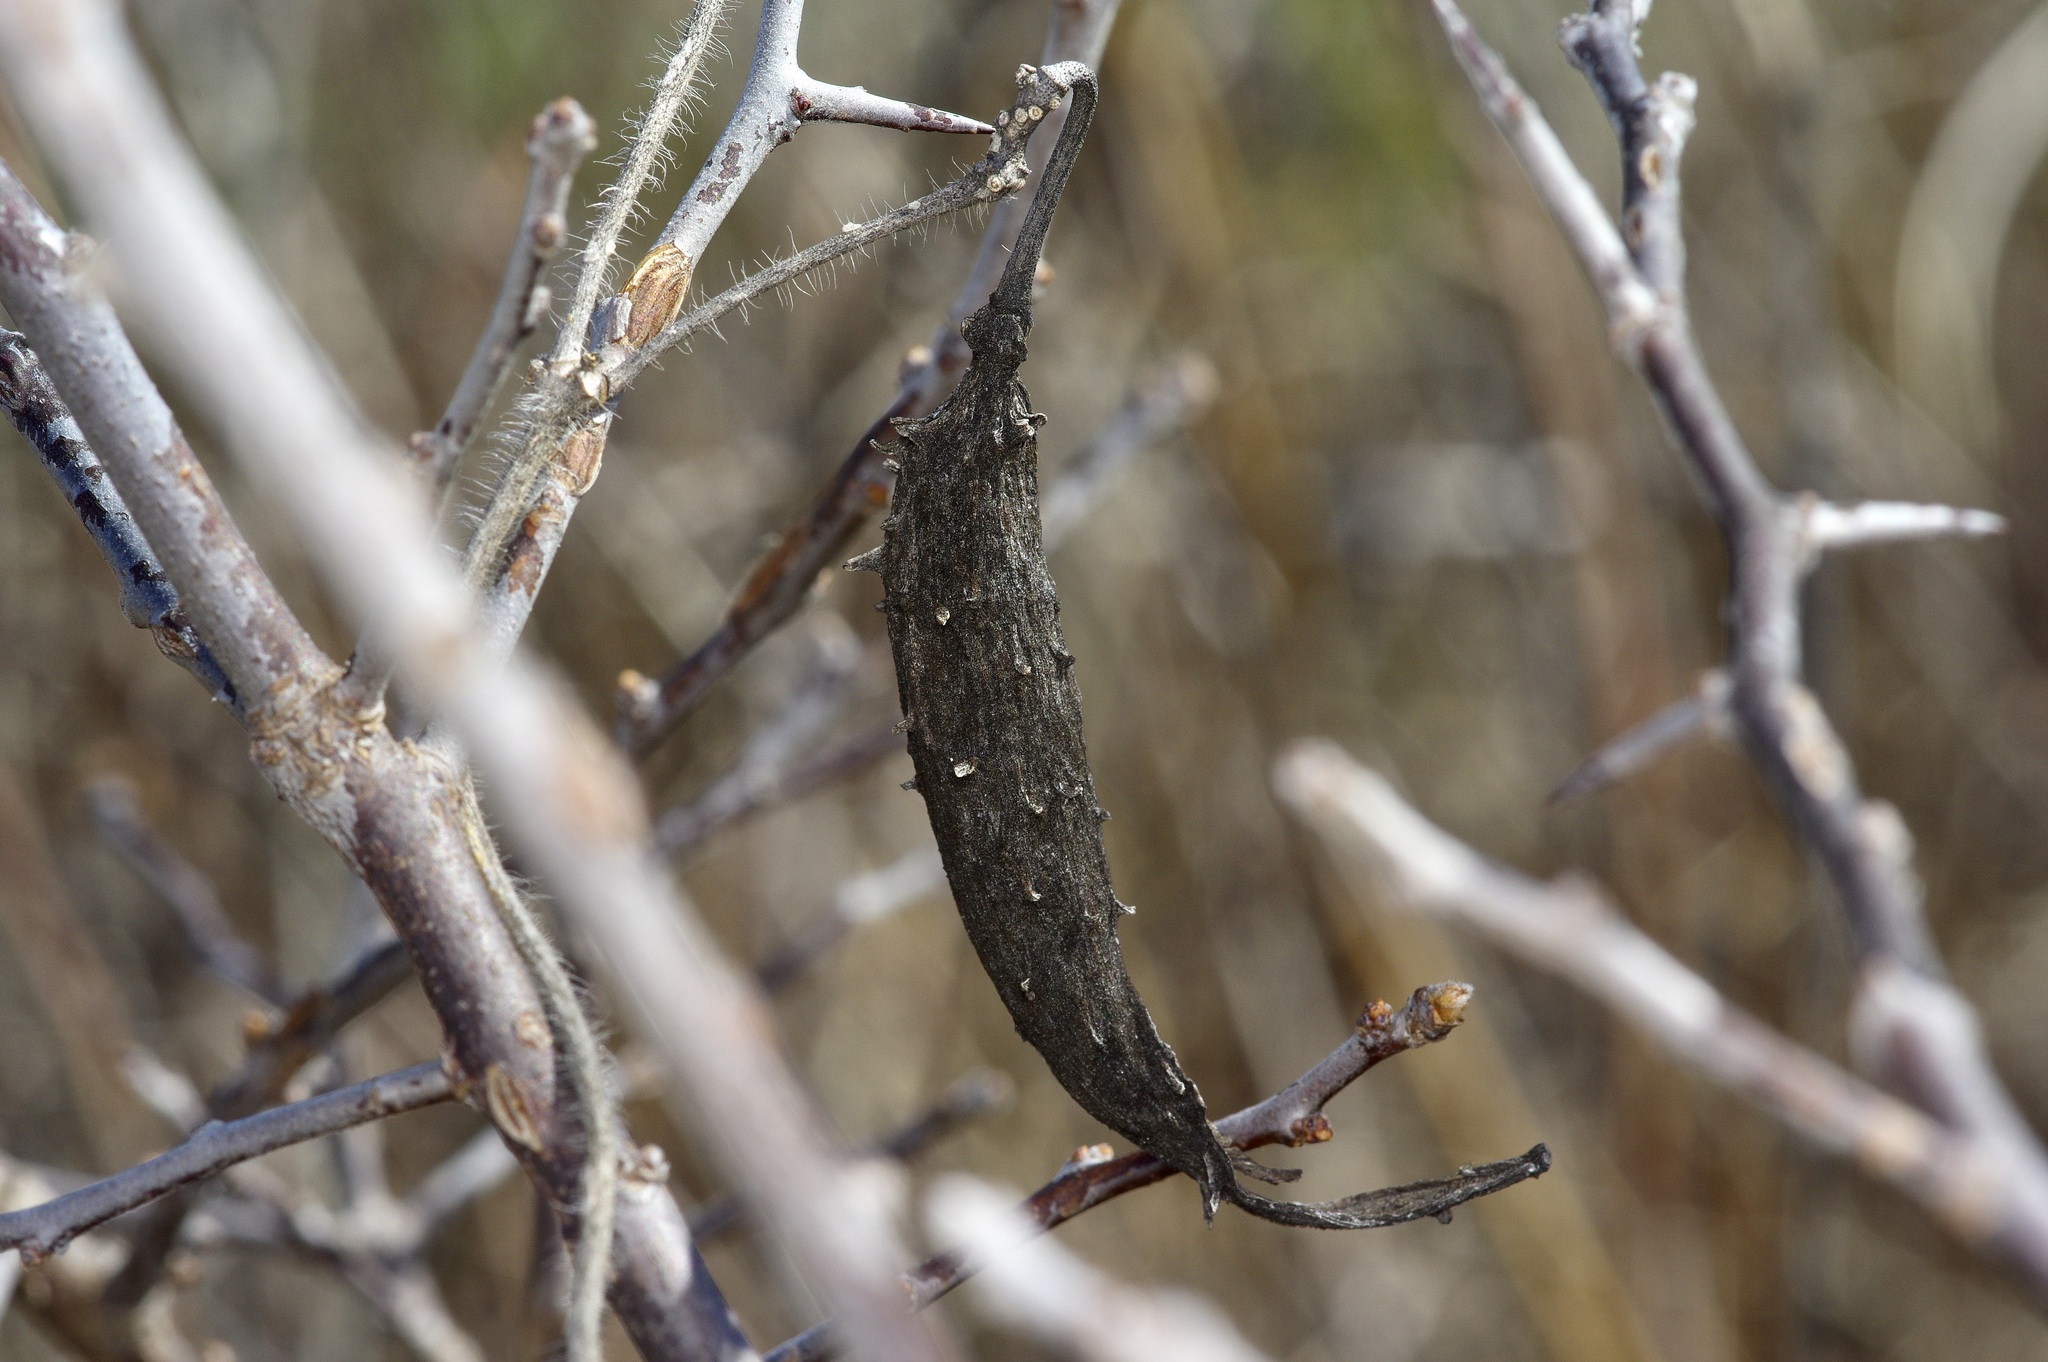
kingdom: Plantae
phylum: Tracheophyta
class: Magnoliopsida
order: Gentianales
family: Apocynaceae
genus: Dictyanthus
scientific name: Dictyanthus reticulatus
